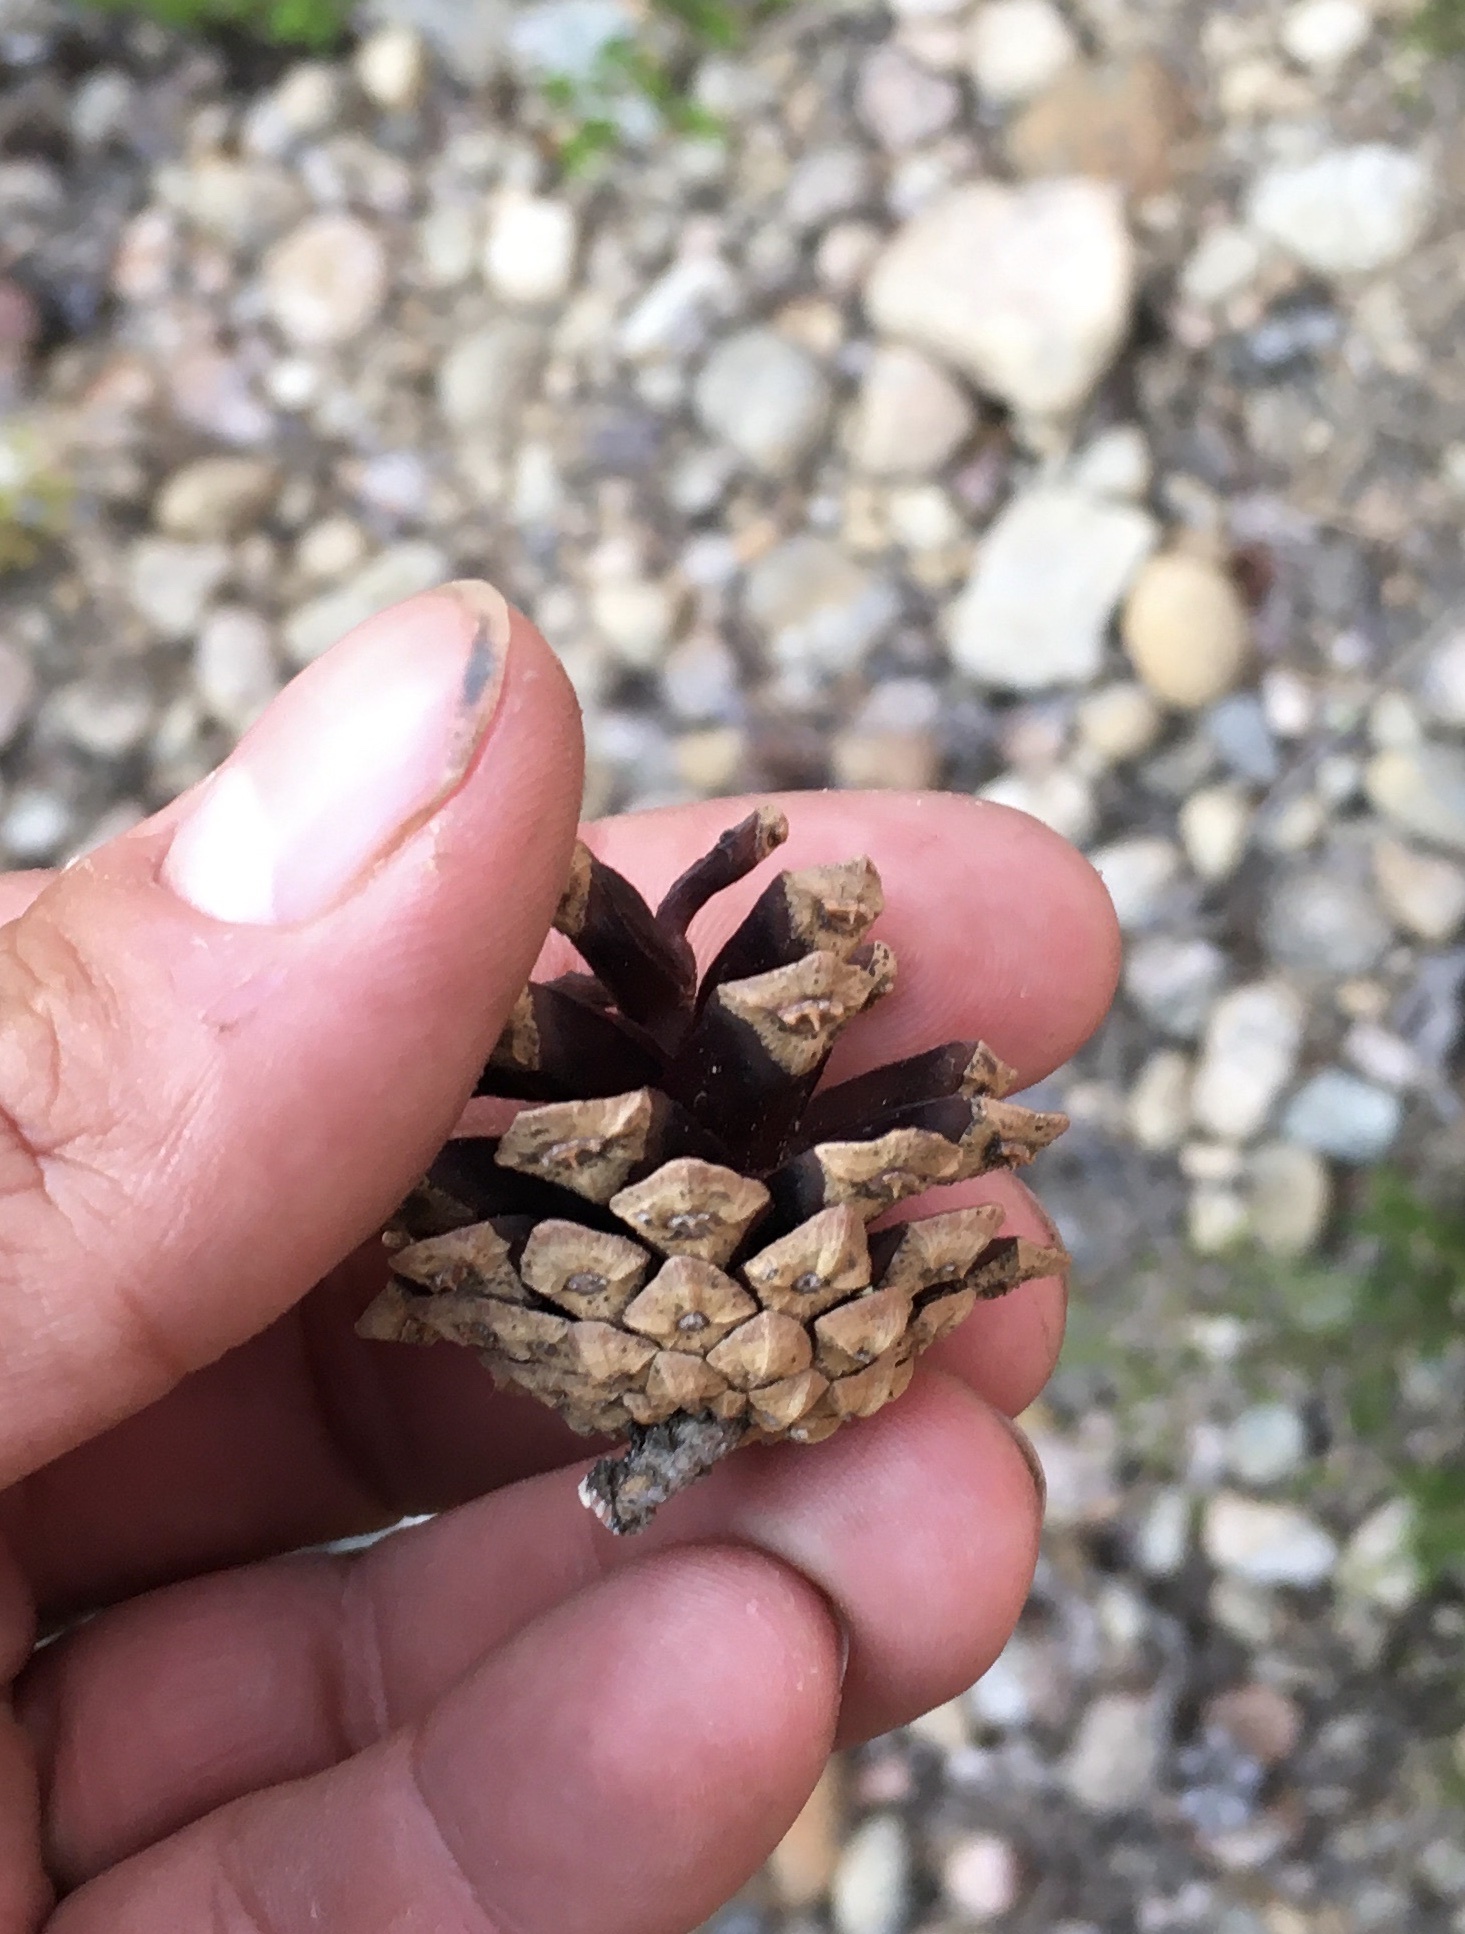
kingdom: Plantae
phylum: Tracheophyta
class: Pinopsida
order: Pinales
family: Pinaceae
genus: Pinus
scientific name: Pinus sylvestris
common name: Scots pine
